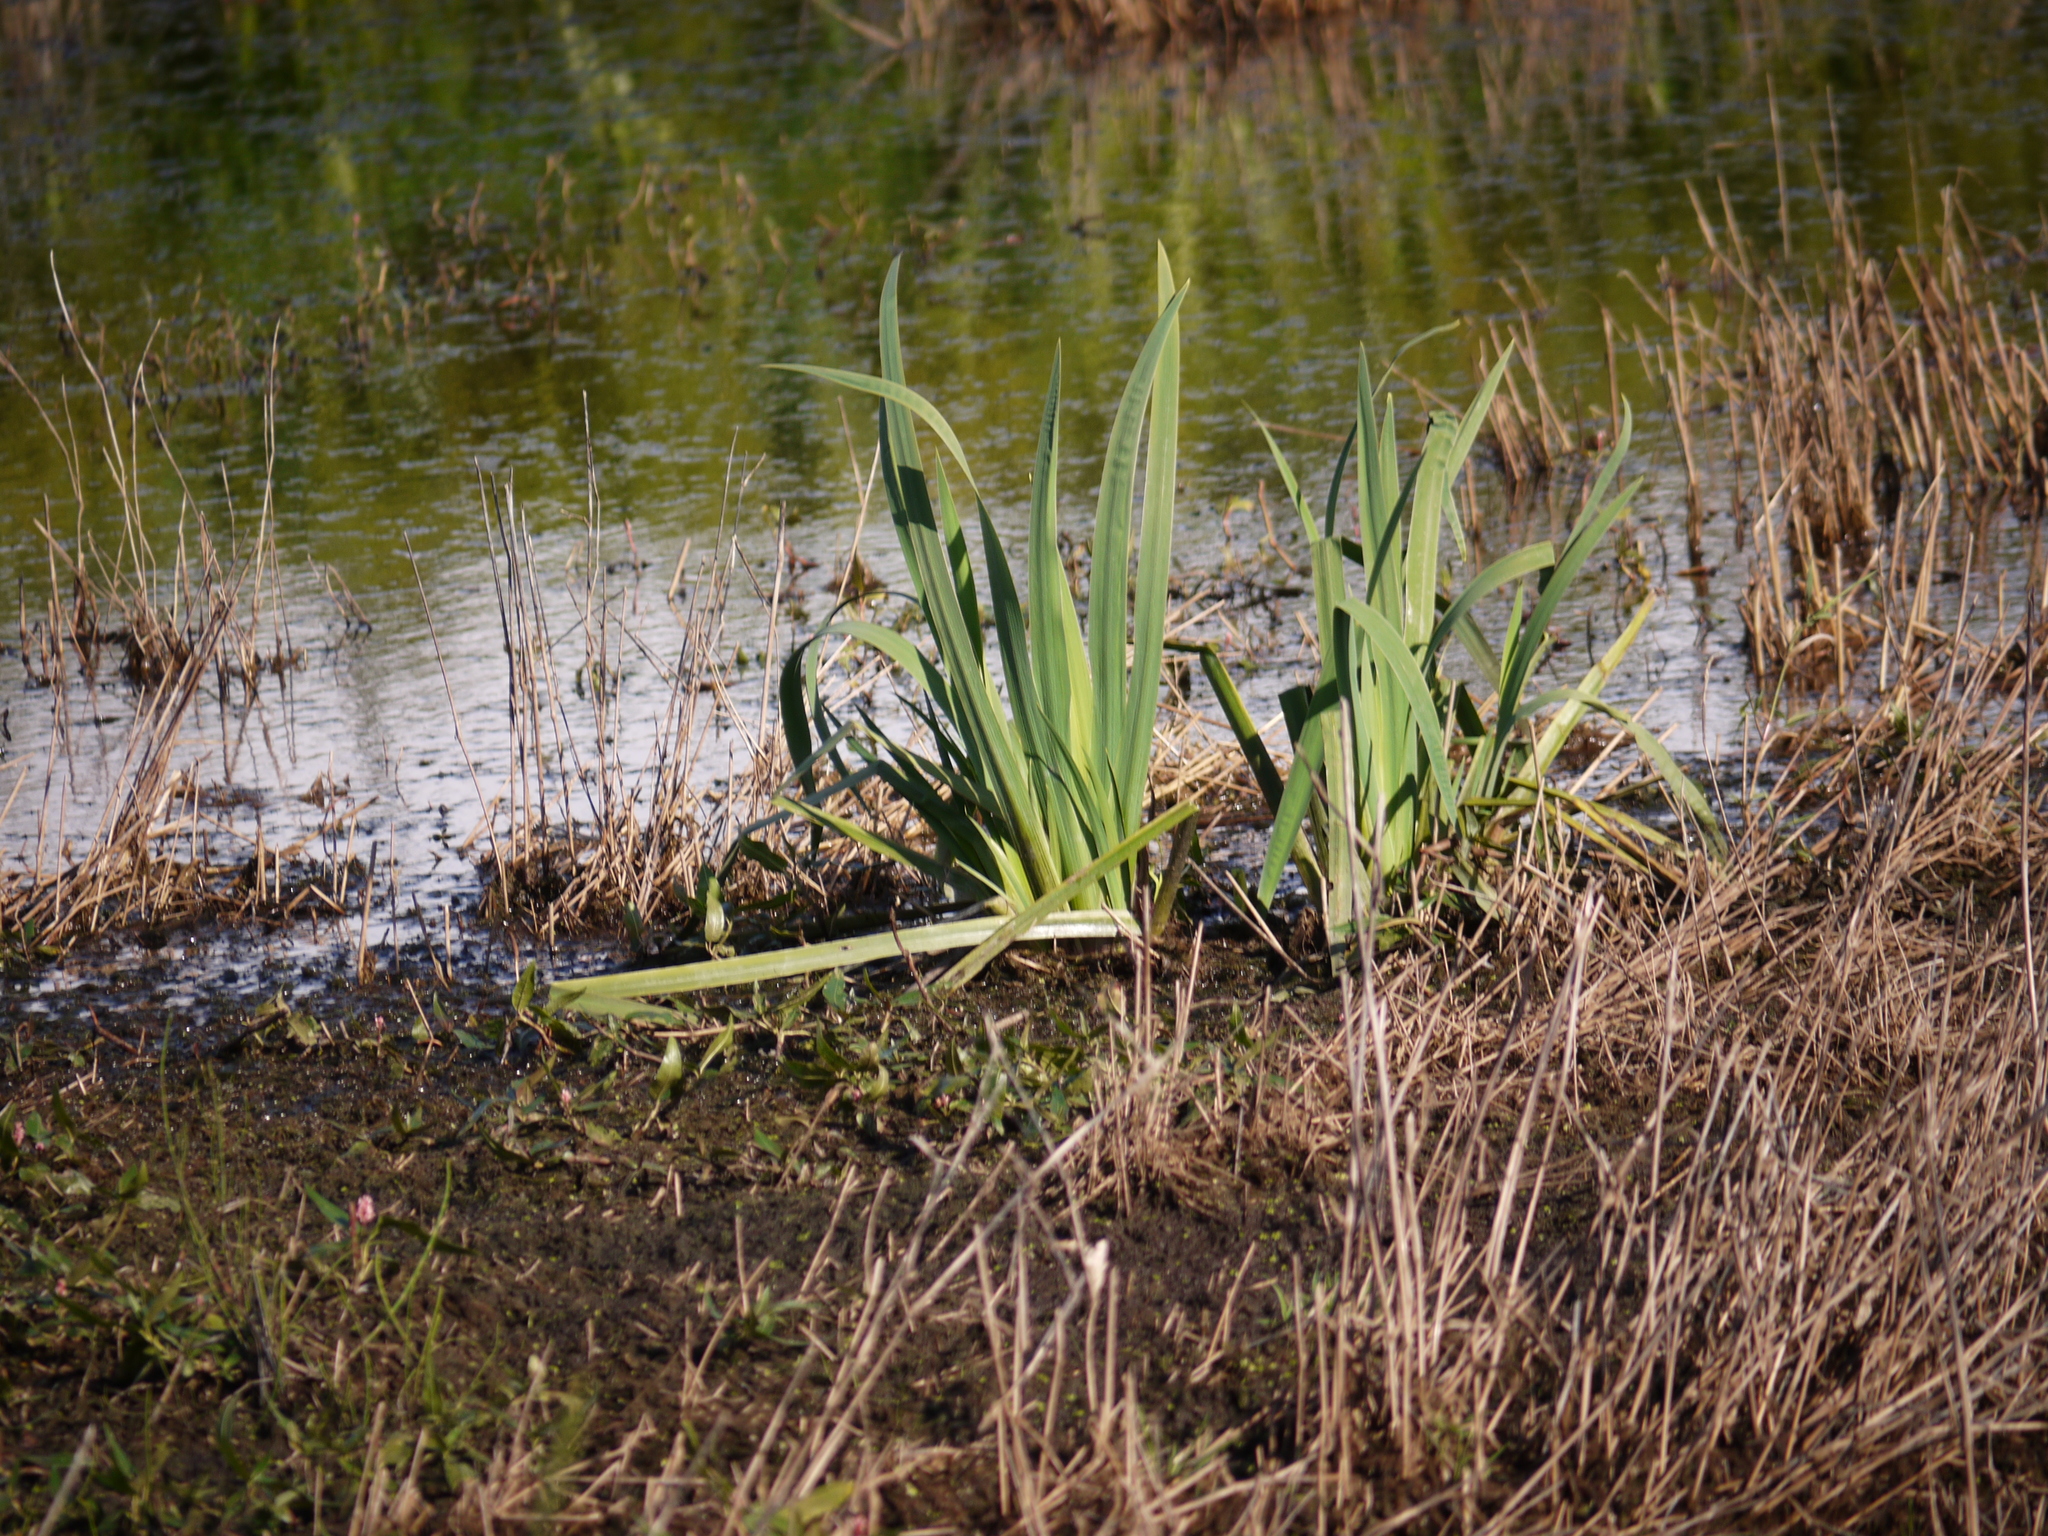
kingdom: Plantae
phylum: Tracheophyta
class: Liliopsida
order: Asparagales
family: Iridaceae
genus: Iris
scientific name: Iris pseudacorus
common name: Yellow flag
